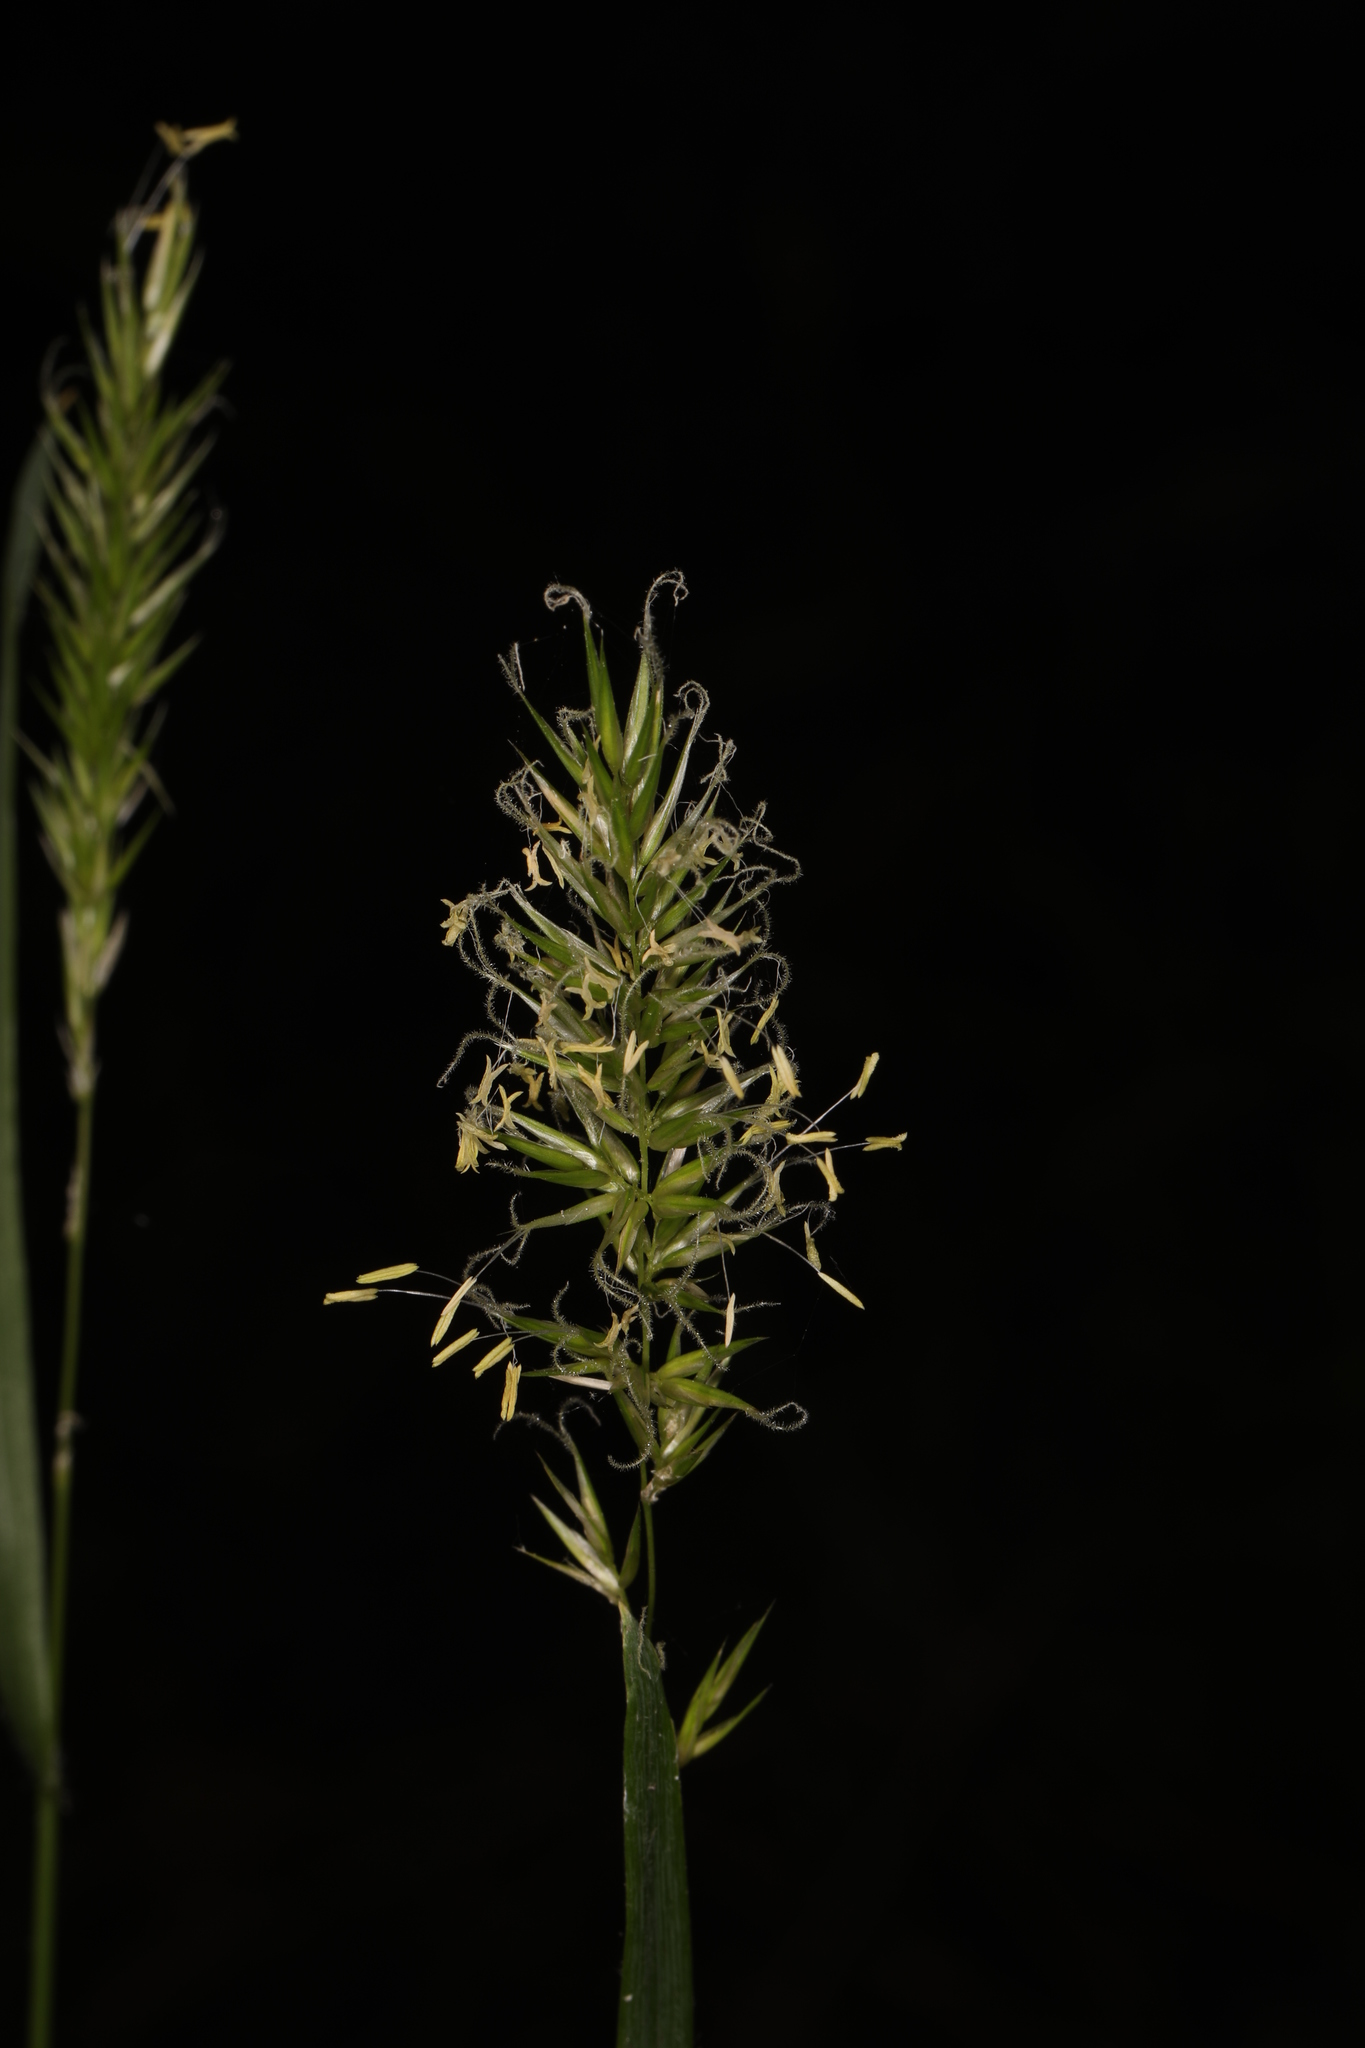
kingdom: Plantae
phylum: Tracheophyta
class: Liliopsida
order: Poales
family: Poaceae
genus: Anthoxanthum
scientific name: Anthoxanthum odoratum
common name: Sweet vernalgrass
